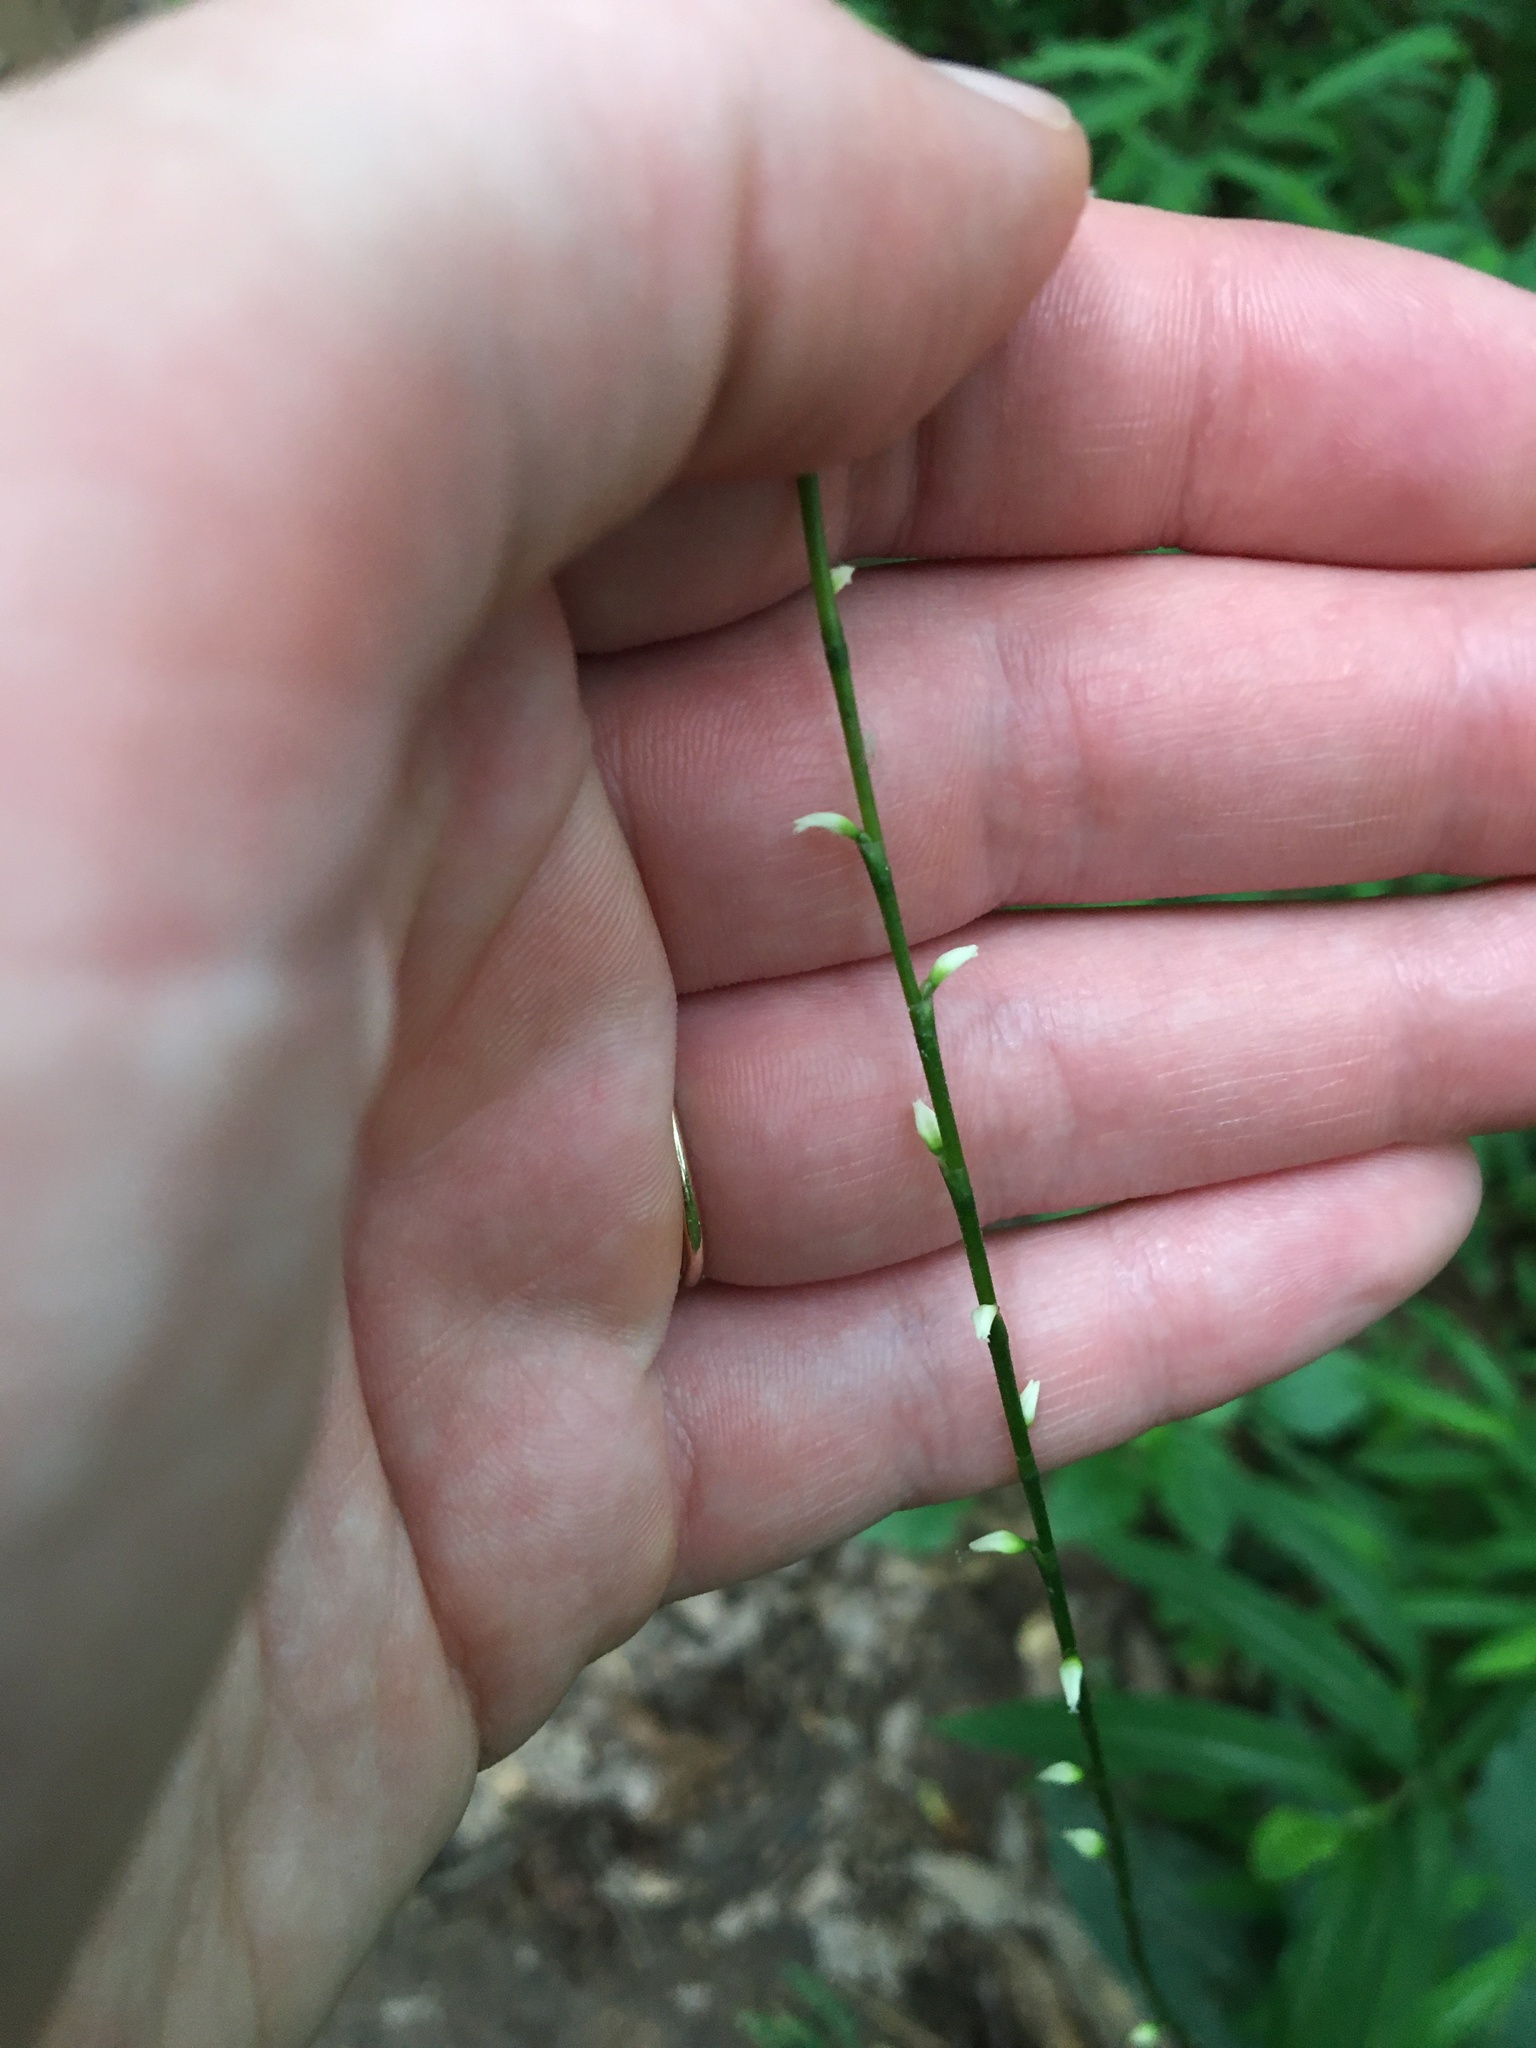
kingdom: Plantae
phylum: Tracheophyta
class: Magnoliopsida
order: Caryophyllales
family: Polygonaceae
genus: Persicaria
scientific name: Persicaria virginiana
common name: Jumpseed
